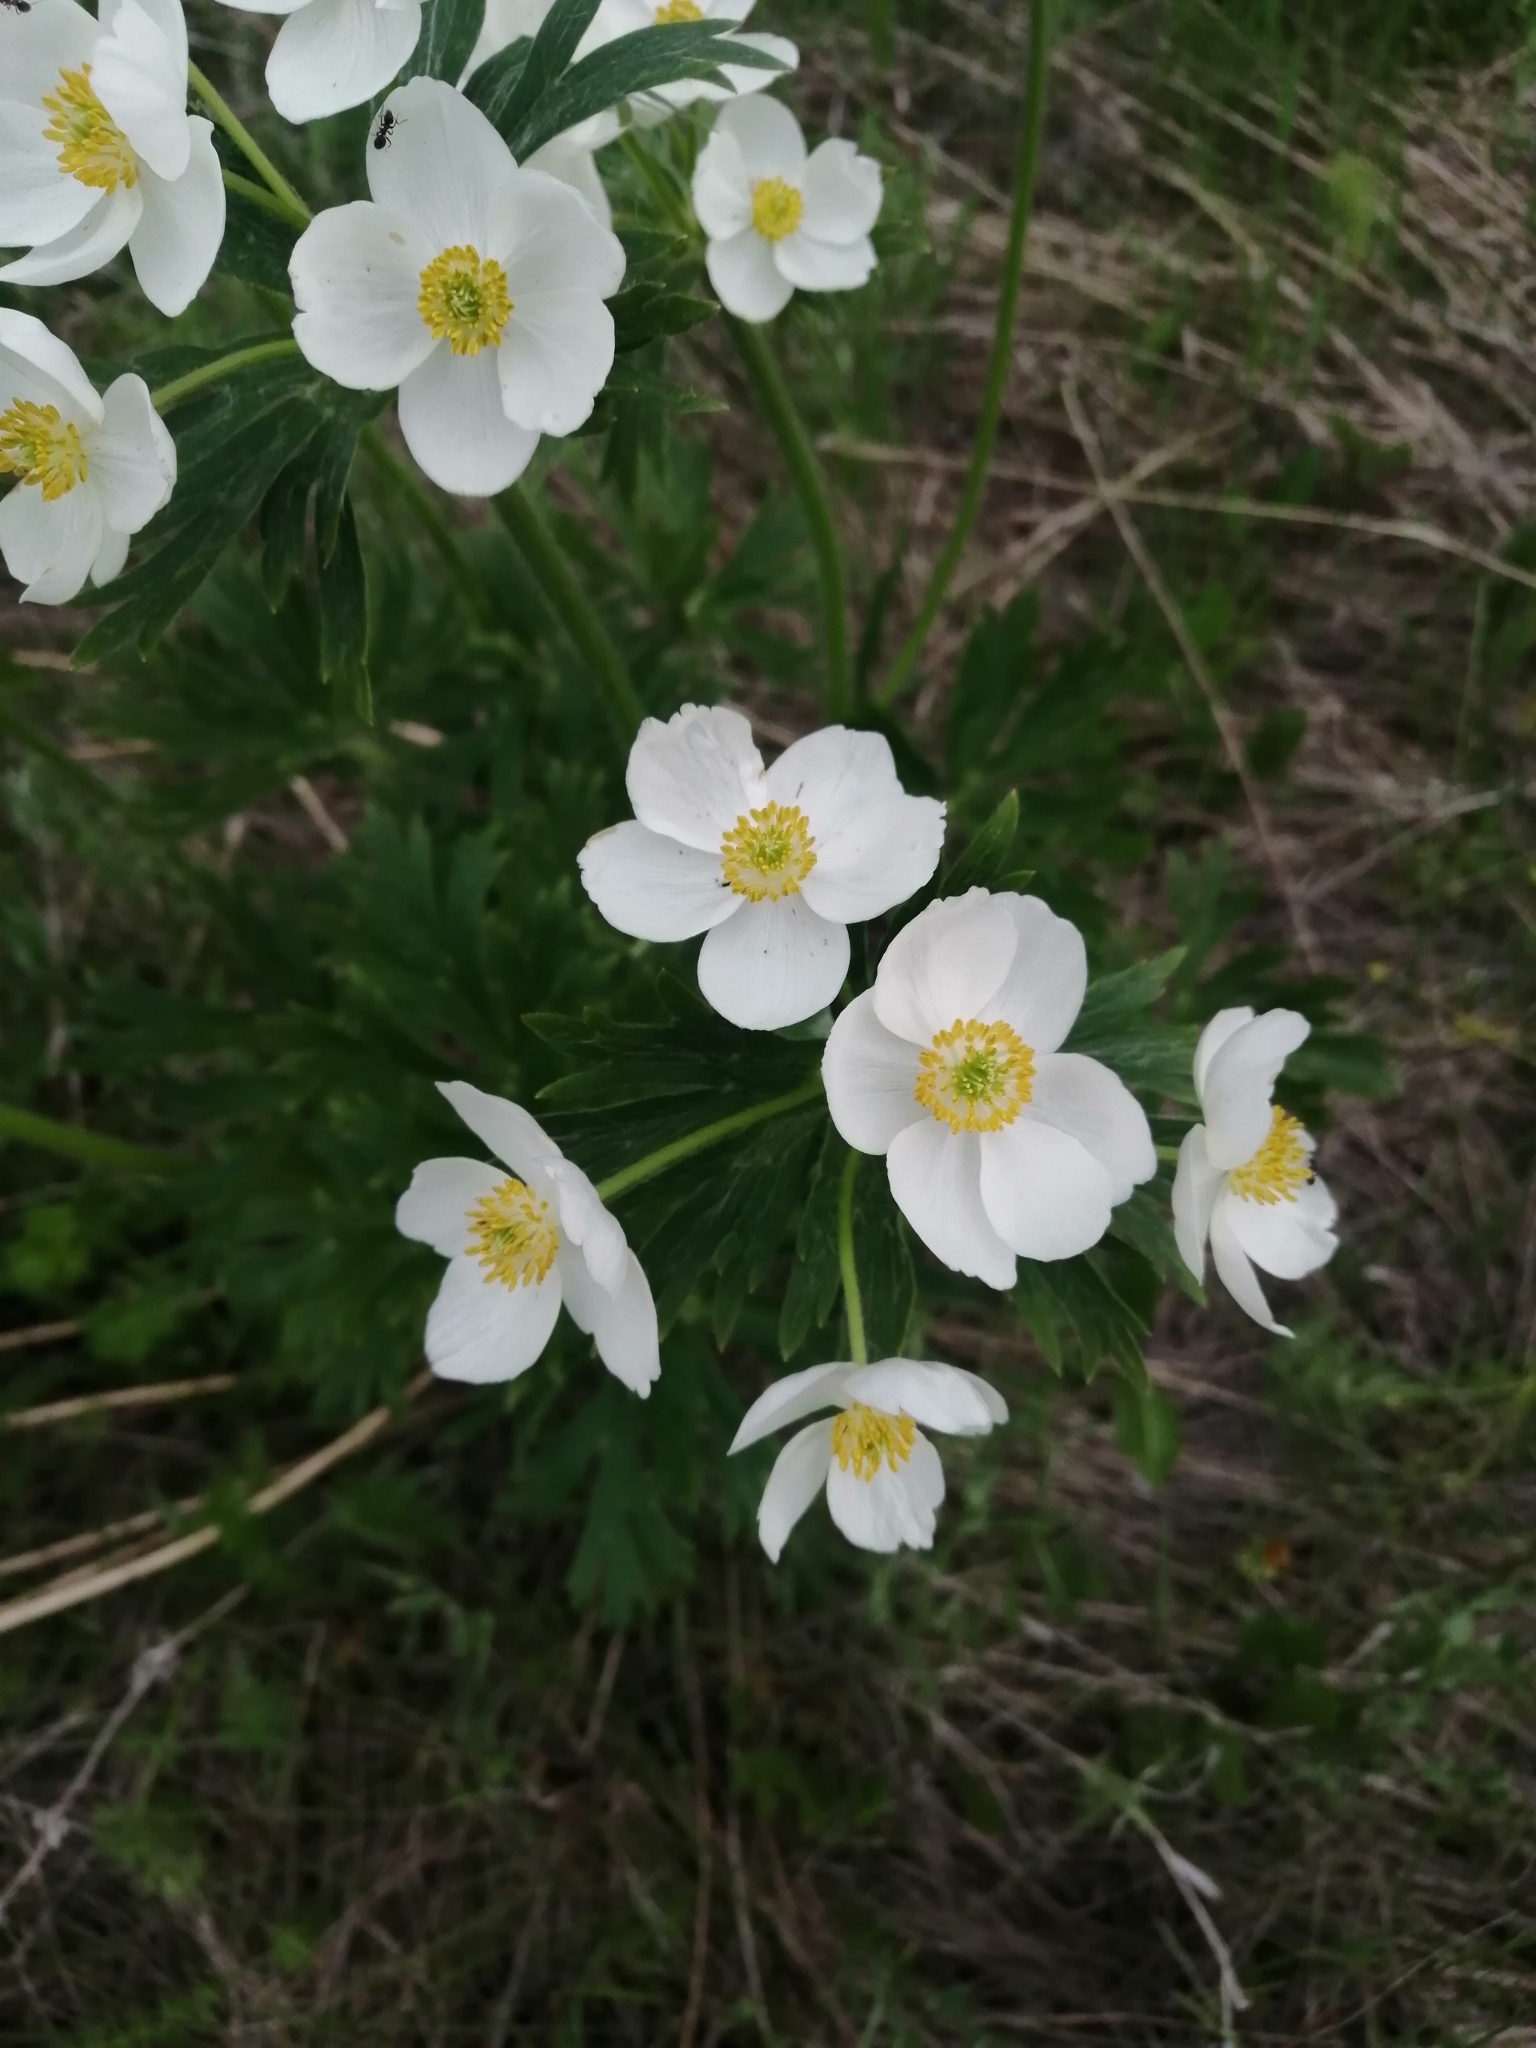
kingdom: Plantae
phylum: Tracheophyta
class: Magnoliopsida
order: Ranunculales
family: Ranunculaceae
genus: Anemonastrum
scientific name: Anemonastrum narcissiflorum
